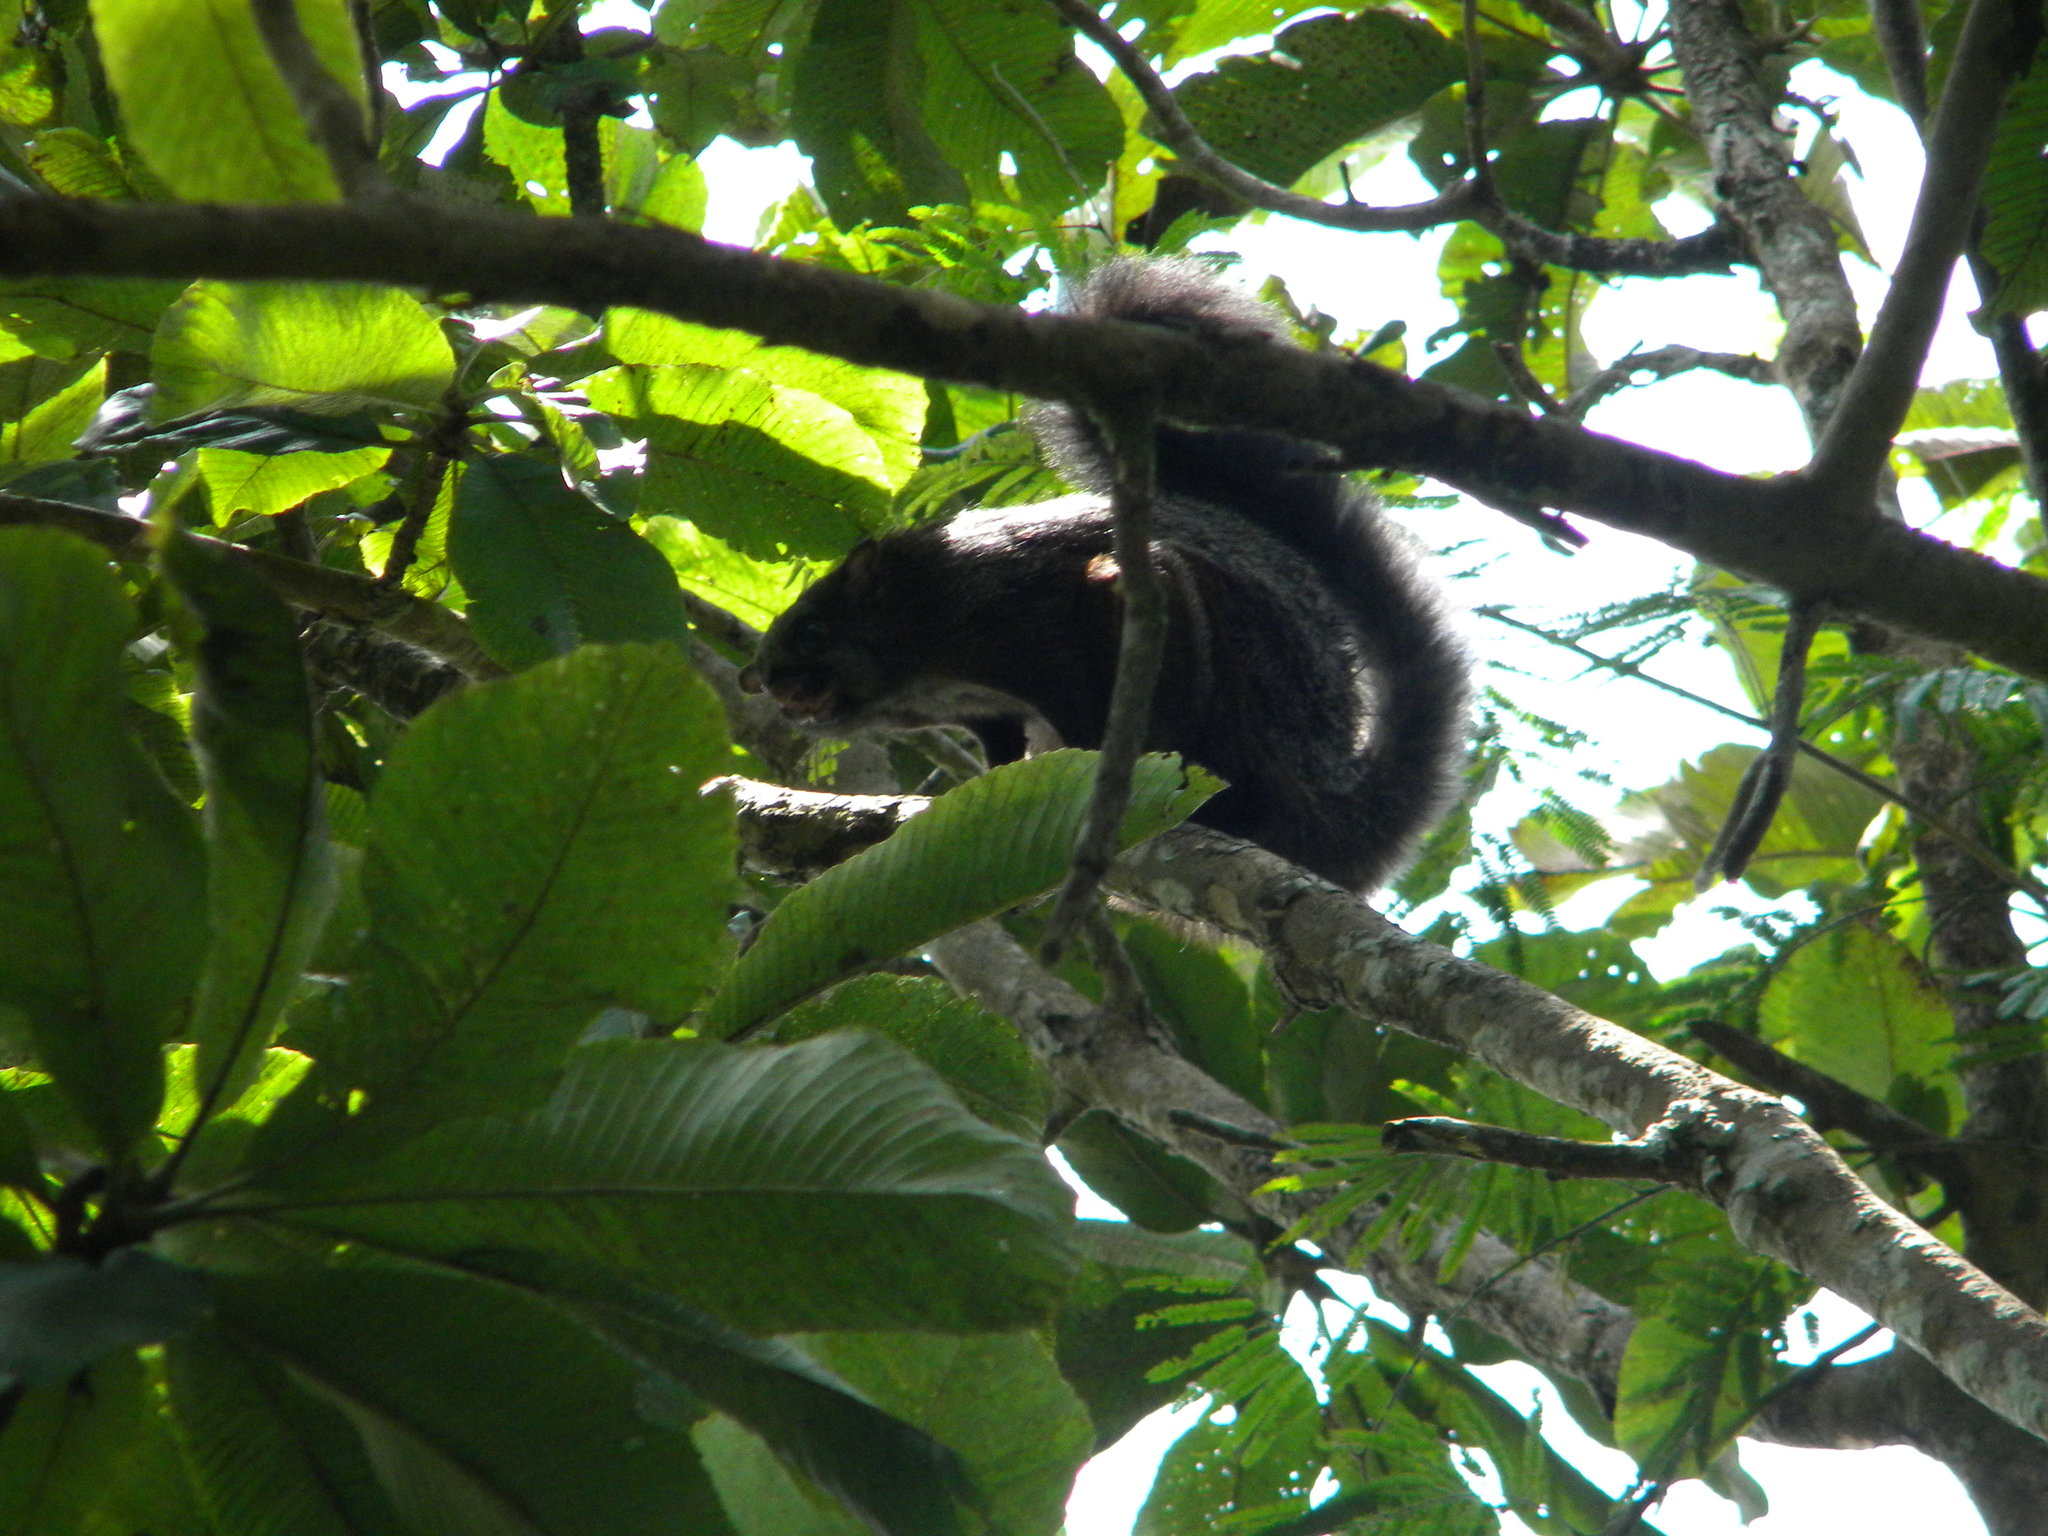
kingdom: Animalia
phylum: Chordata
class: Mammalia
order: Rodentia
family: Sciuridae
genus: Petaurista
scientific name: Petaurista philippensis
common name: Indian giant flying squirrel
